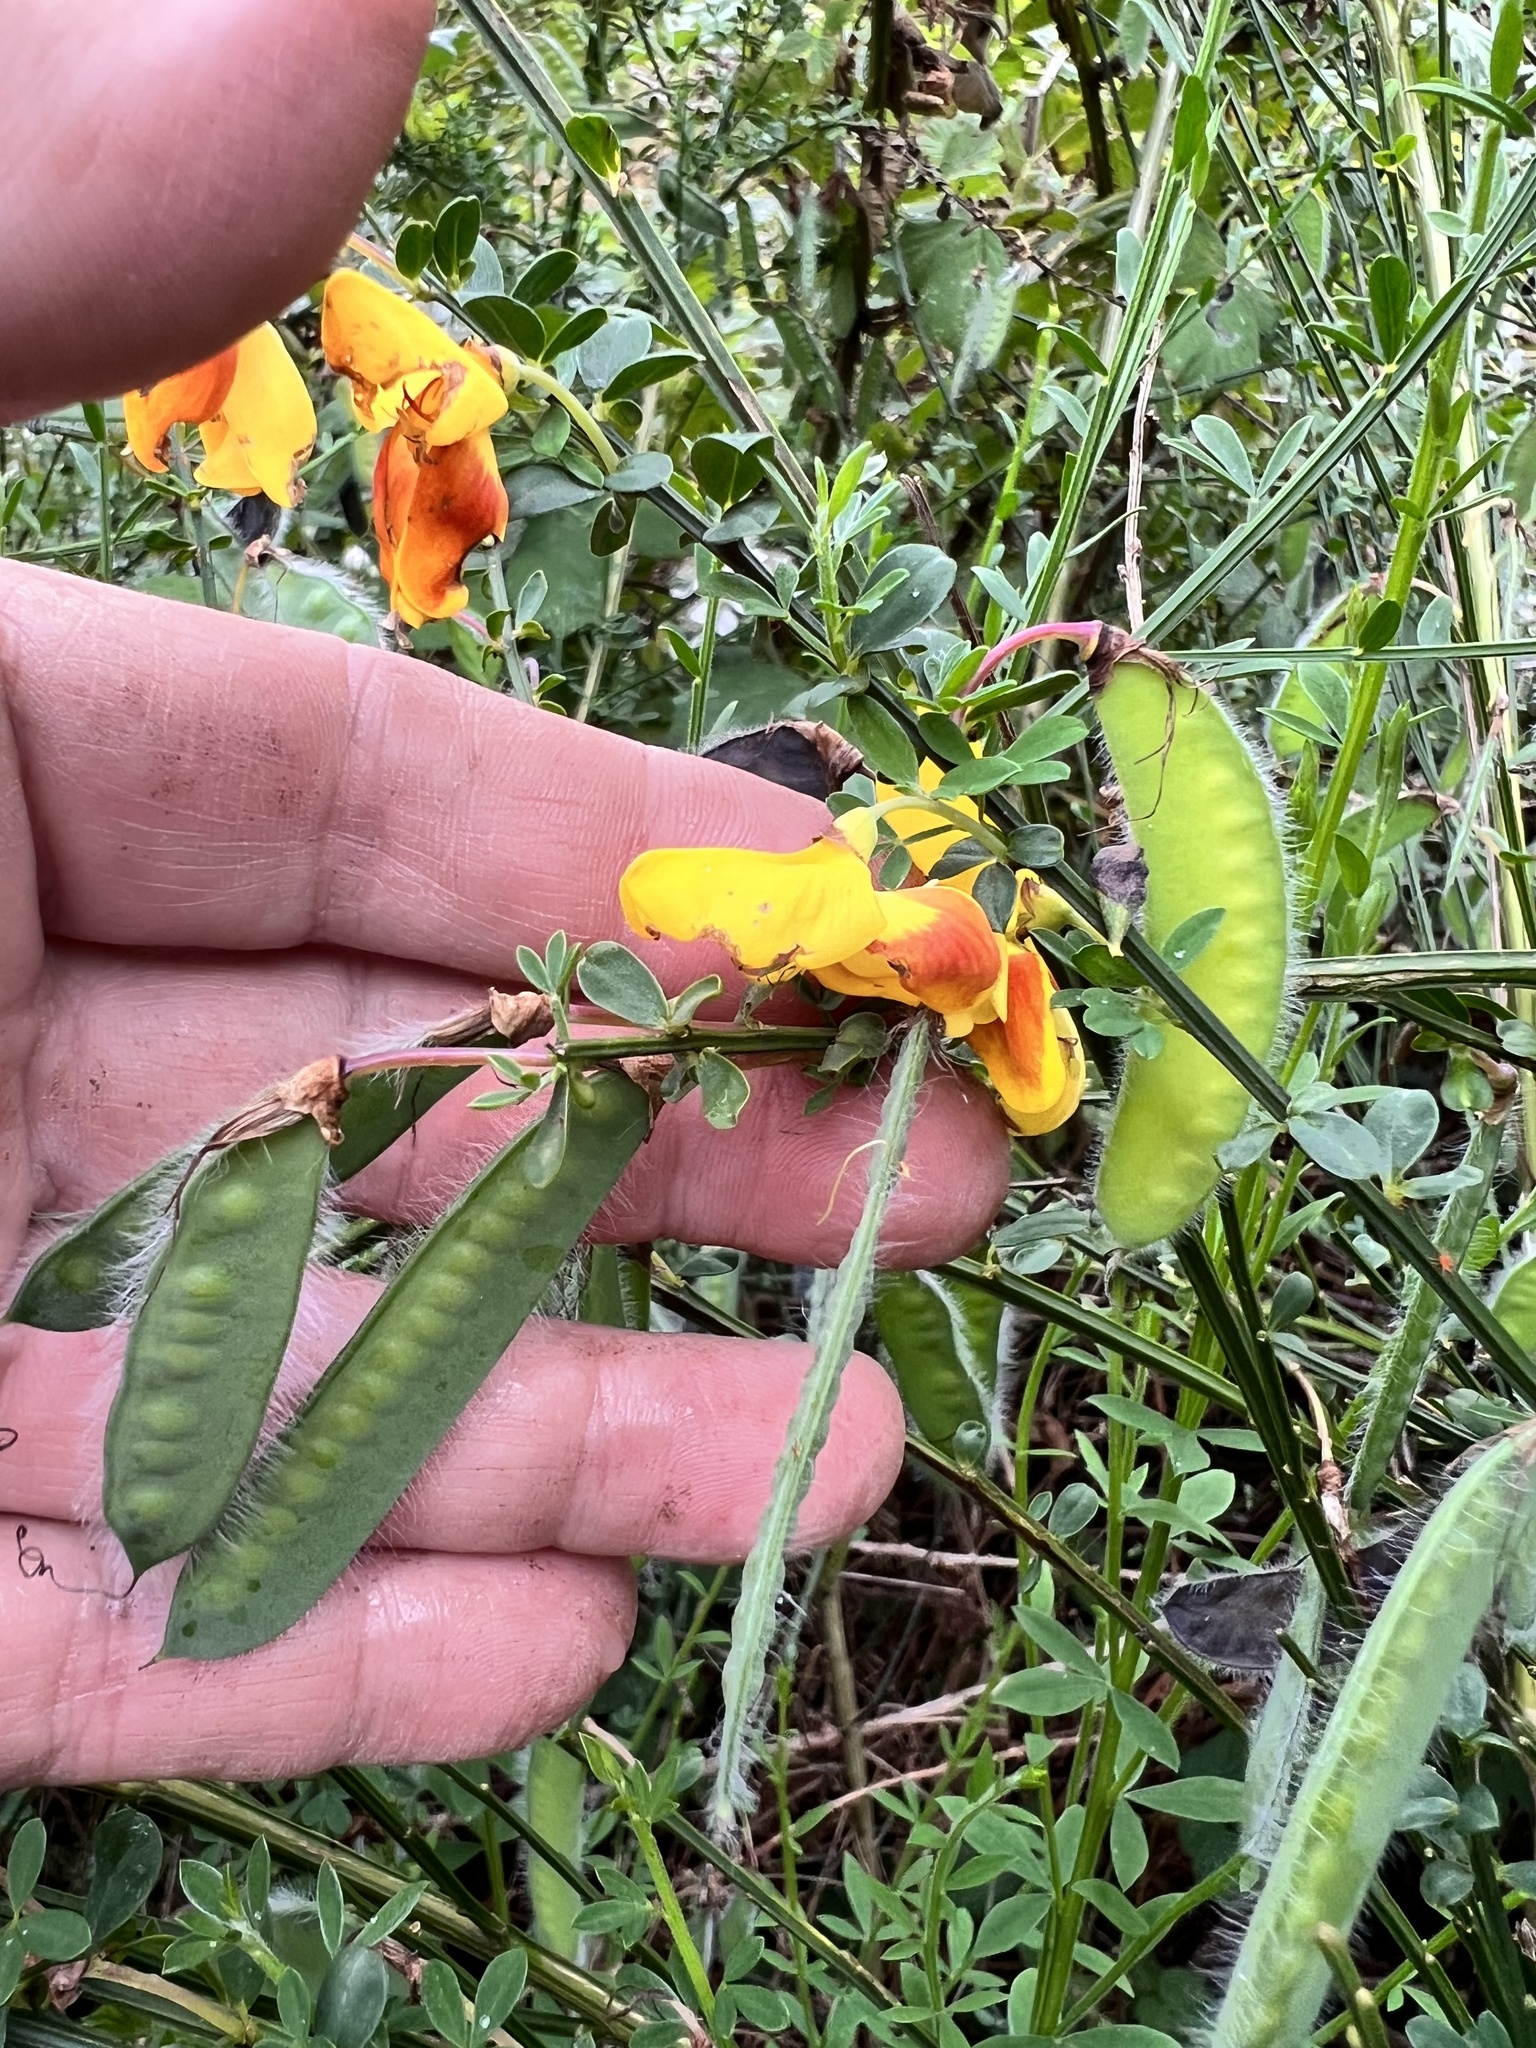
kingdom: Plantae
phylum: Tracheophyta
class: Magnoliopsida
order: Fabales
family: Fabaceae
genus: Cytisus
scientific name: Cytisus scoparius
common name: Scotch broom
